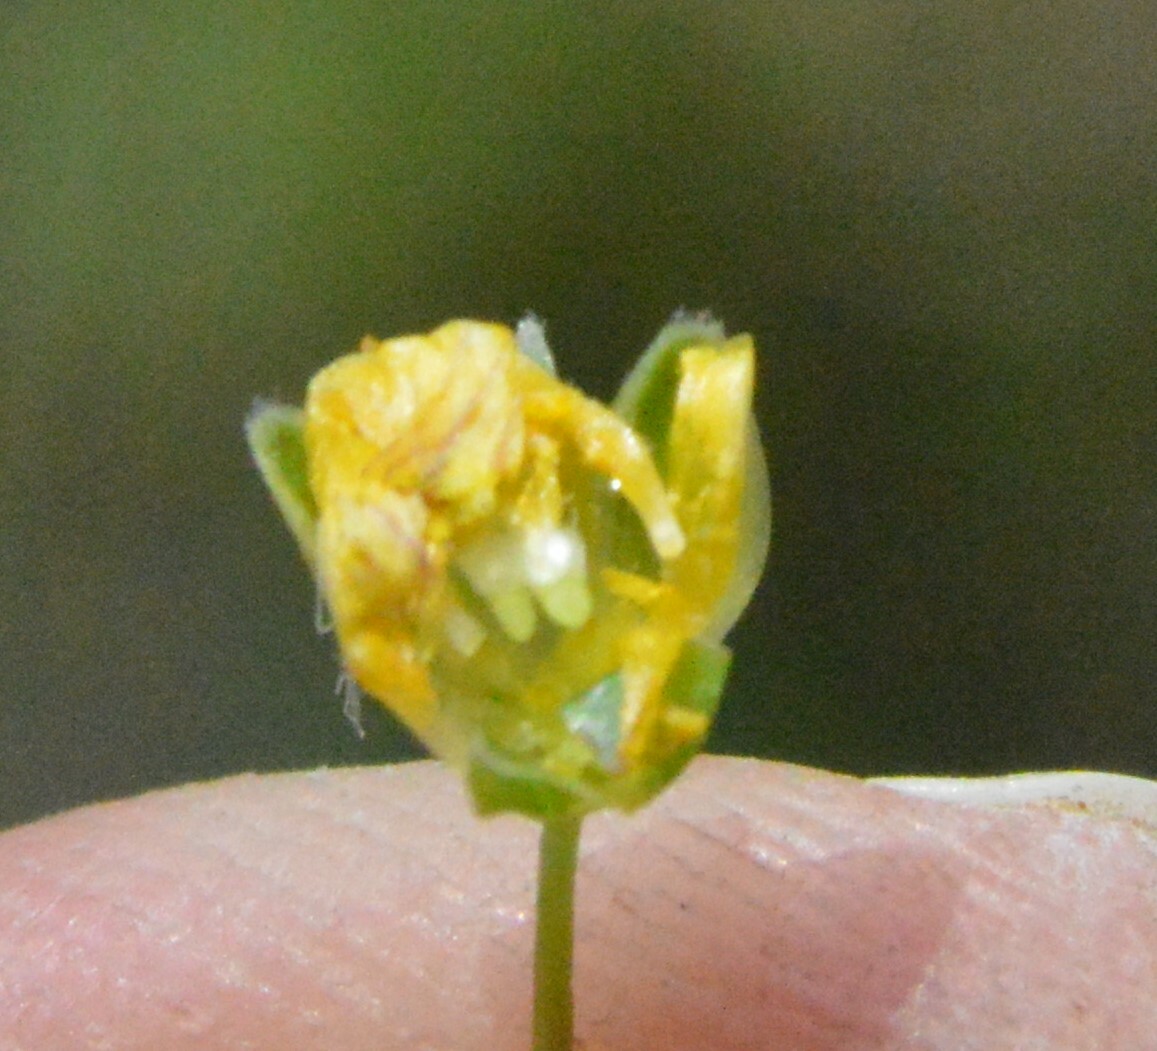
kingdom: Plantae
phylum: Tracheophyta
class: Magnoliopsida
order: Asterales
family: Asteraceae
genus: Krigia
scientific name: Krigia occidentalis
